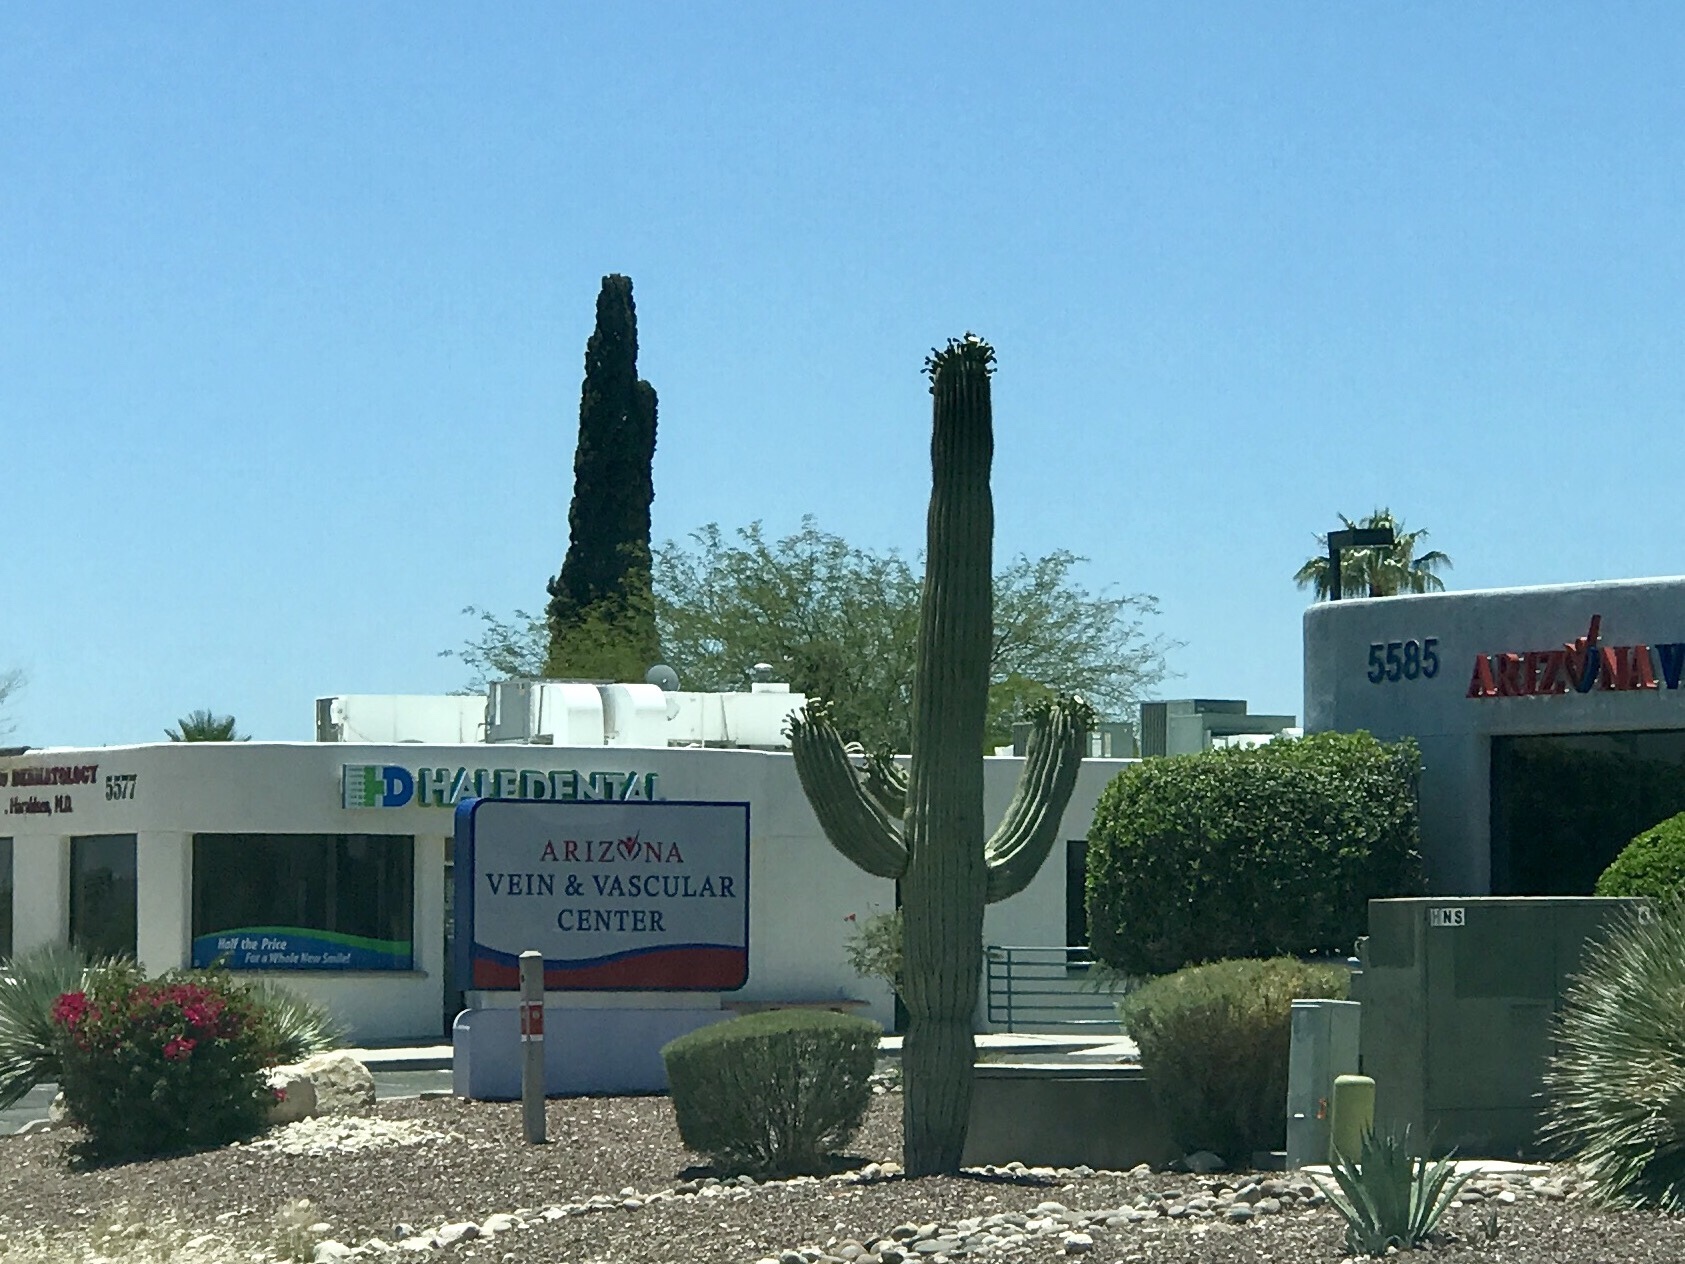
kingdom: Plantae
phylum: Tracheophyta
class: Magnoliopsida
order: Caryophyllales
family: Cactaceae
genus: Carnegiea
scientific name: Carnegiea gigantea
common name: Saguaro
